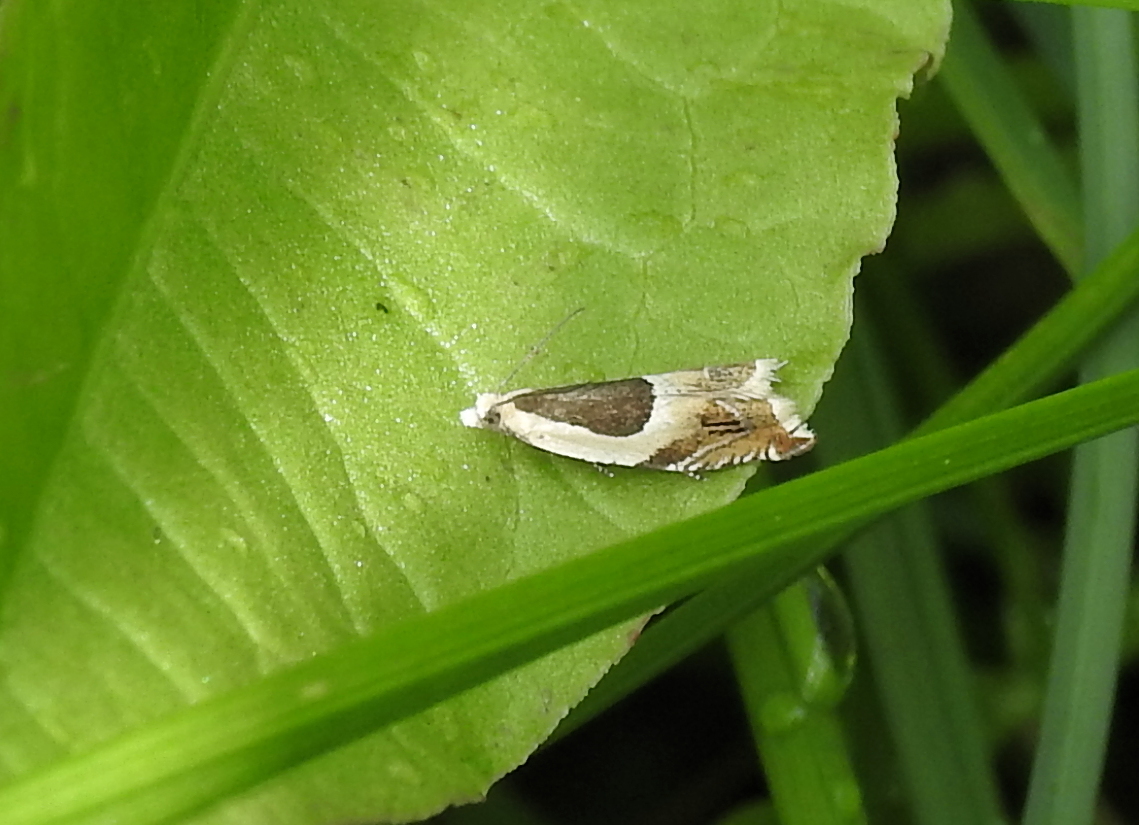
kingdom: Animalia
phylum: Arthropoda
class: Insecta
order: Lepidoptera
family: Tortricidae
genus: Ancylis
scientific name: Ancylis badiana
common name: Common roller
